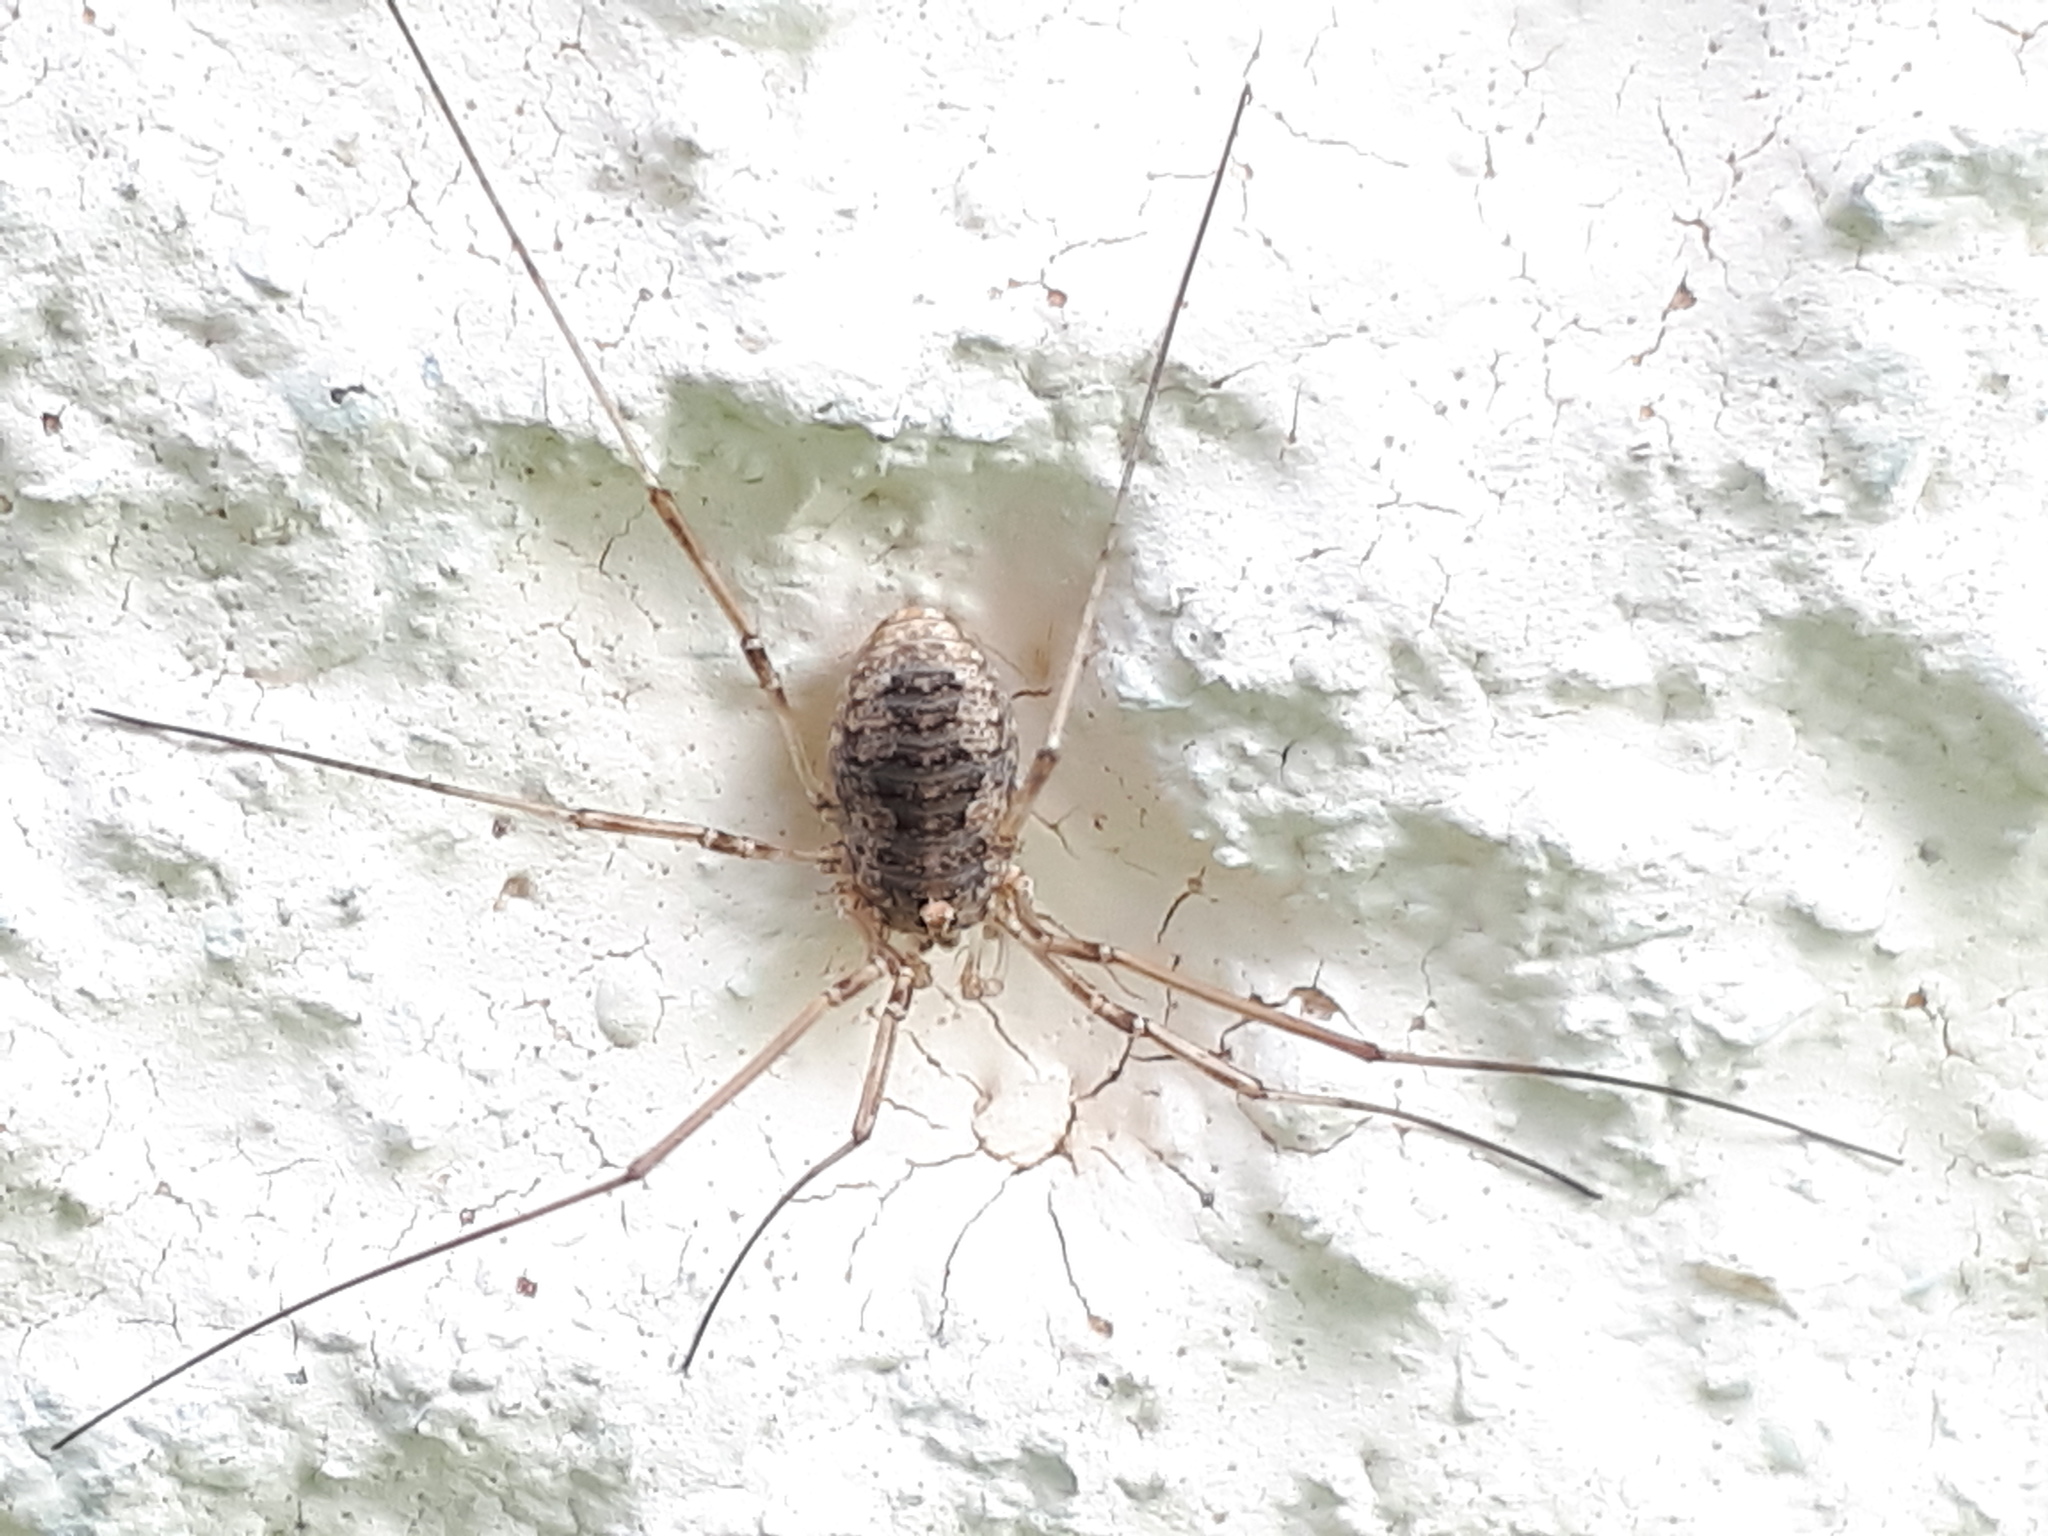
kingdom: Animalia
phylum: Arthropoda
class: Arachnida
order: Opiliones
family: Phalangiidae
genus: Phalangium
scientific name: Phalangium opilio
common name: Daddy longleg
